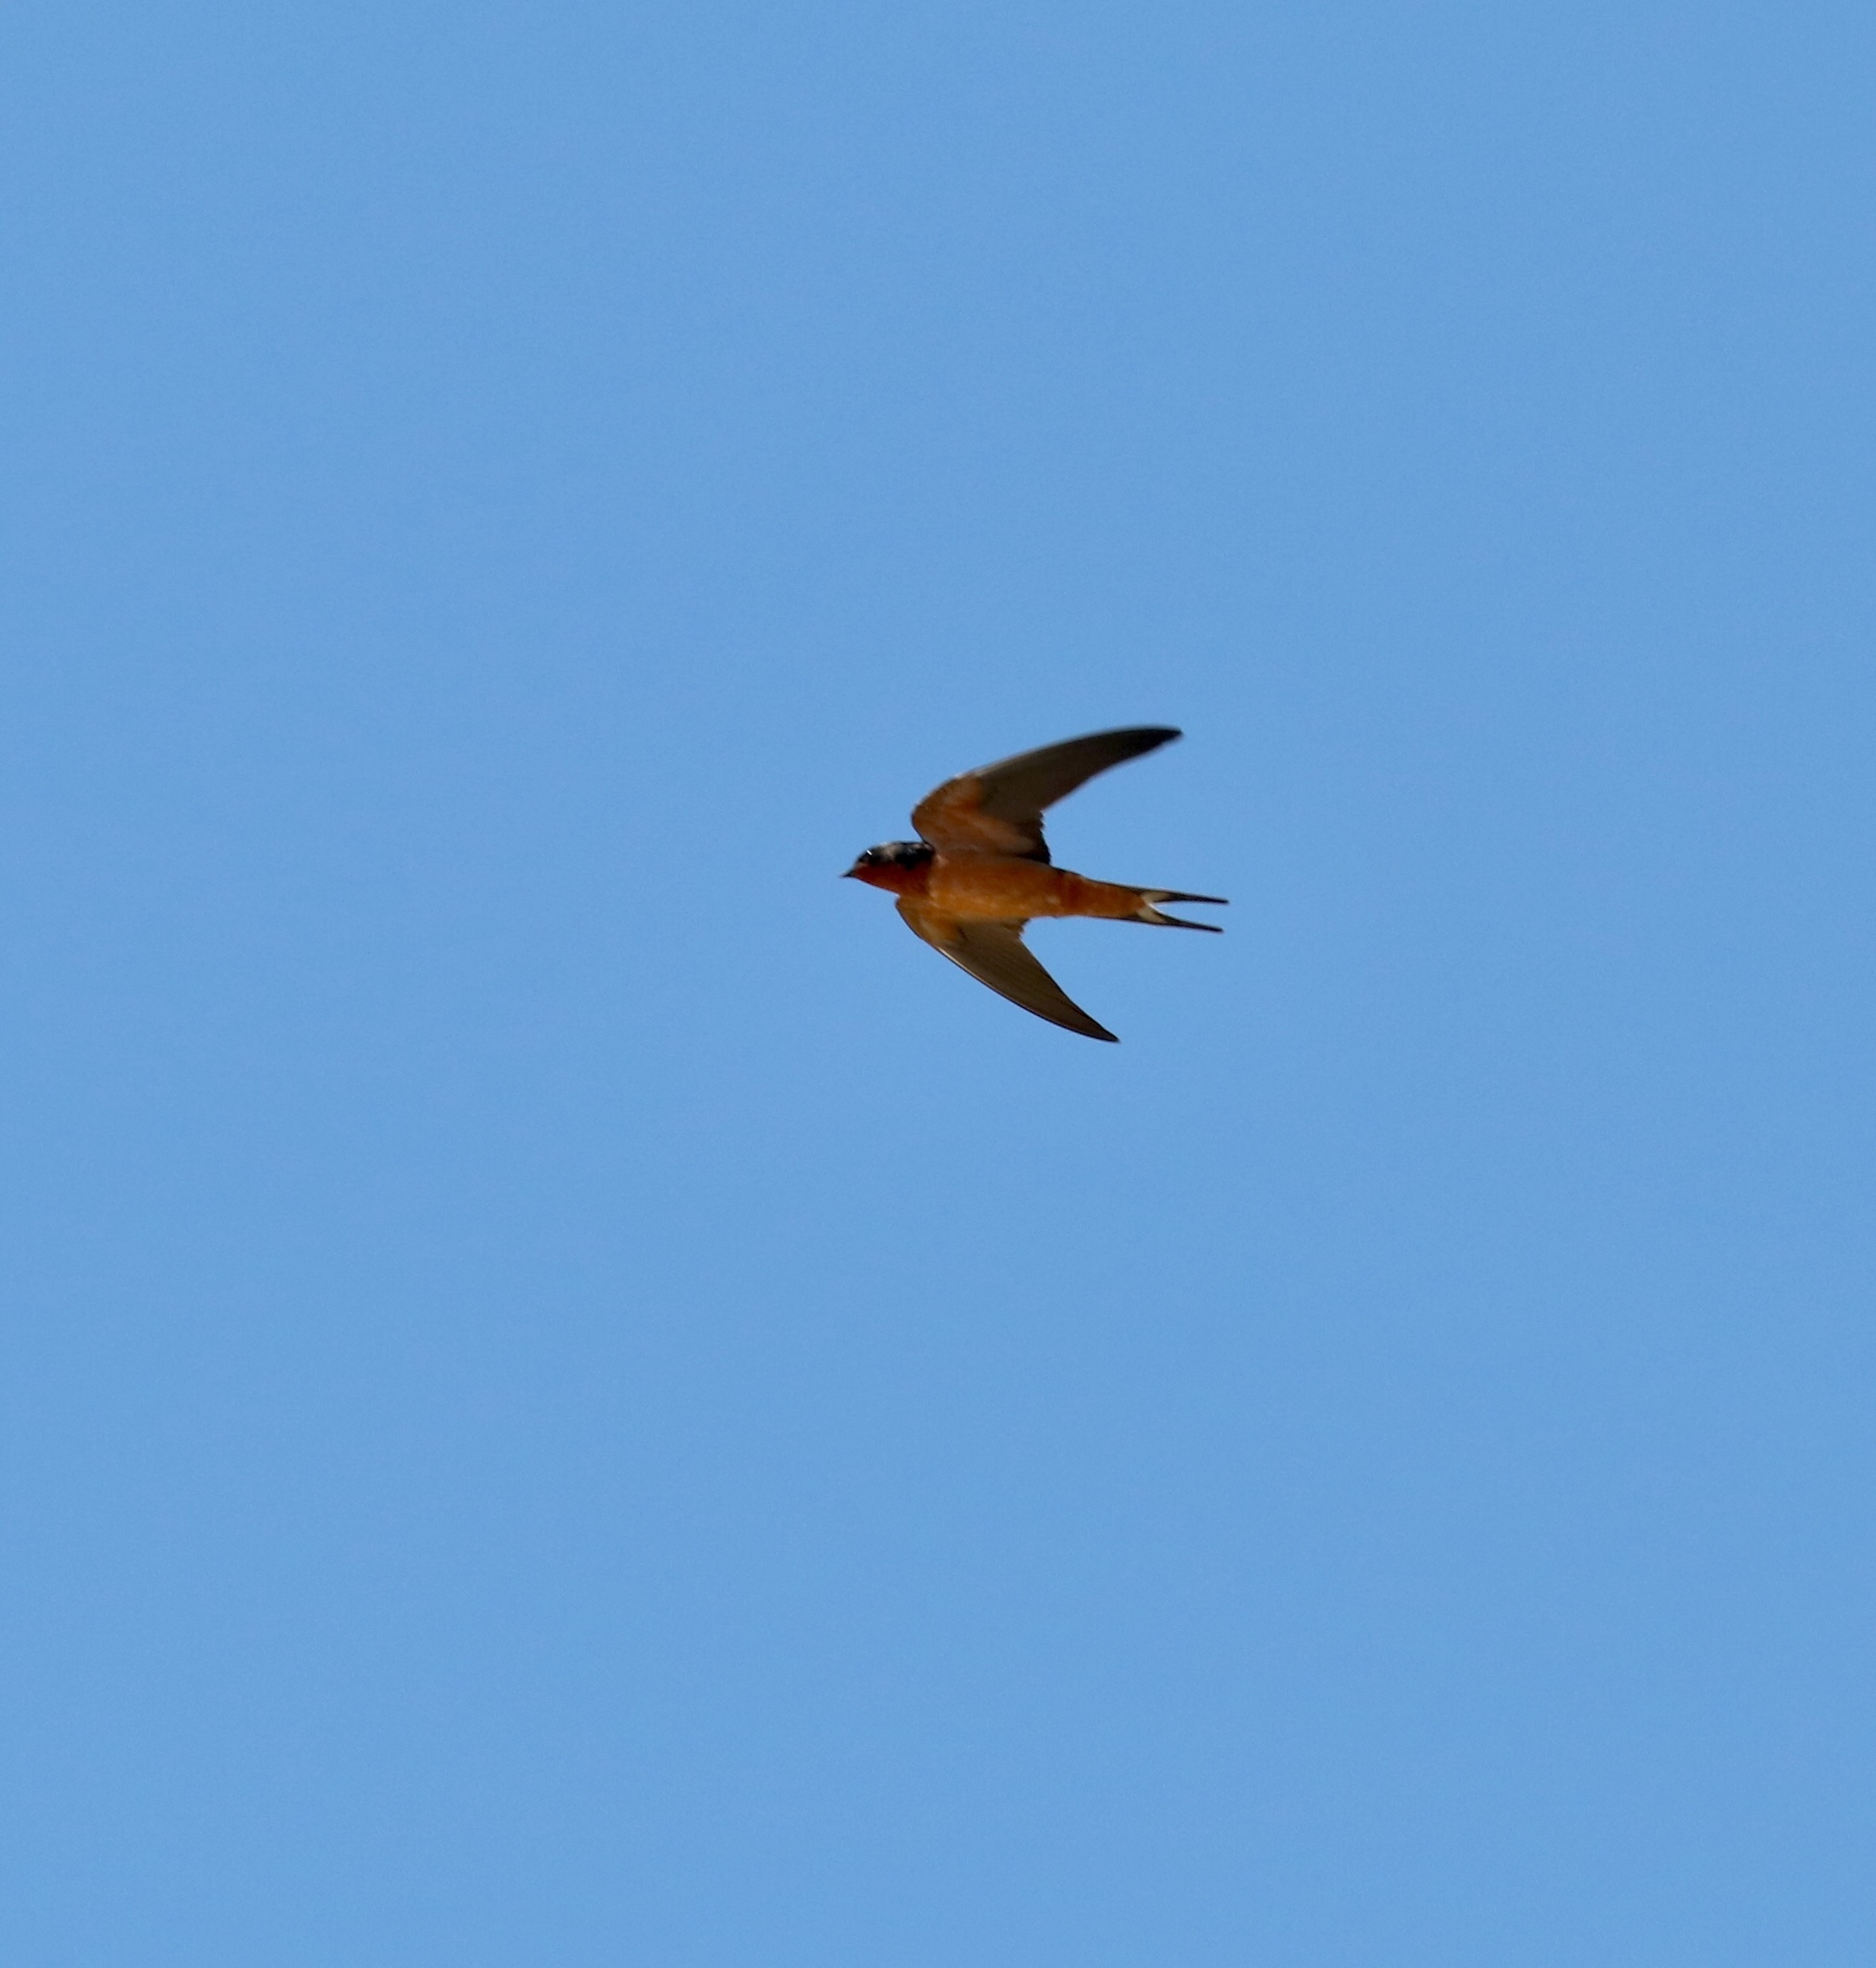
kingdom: Animalia
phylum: Chordata
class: Aves
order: Passeriformes
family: Hirundinidae
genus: Hirundo
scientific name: Hirundo rustica
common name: Barn swallow
